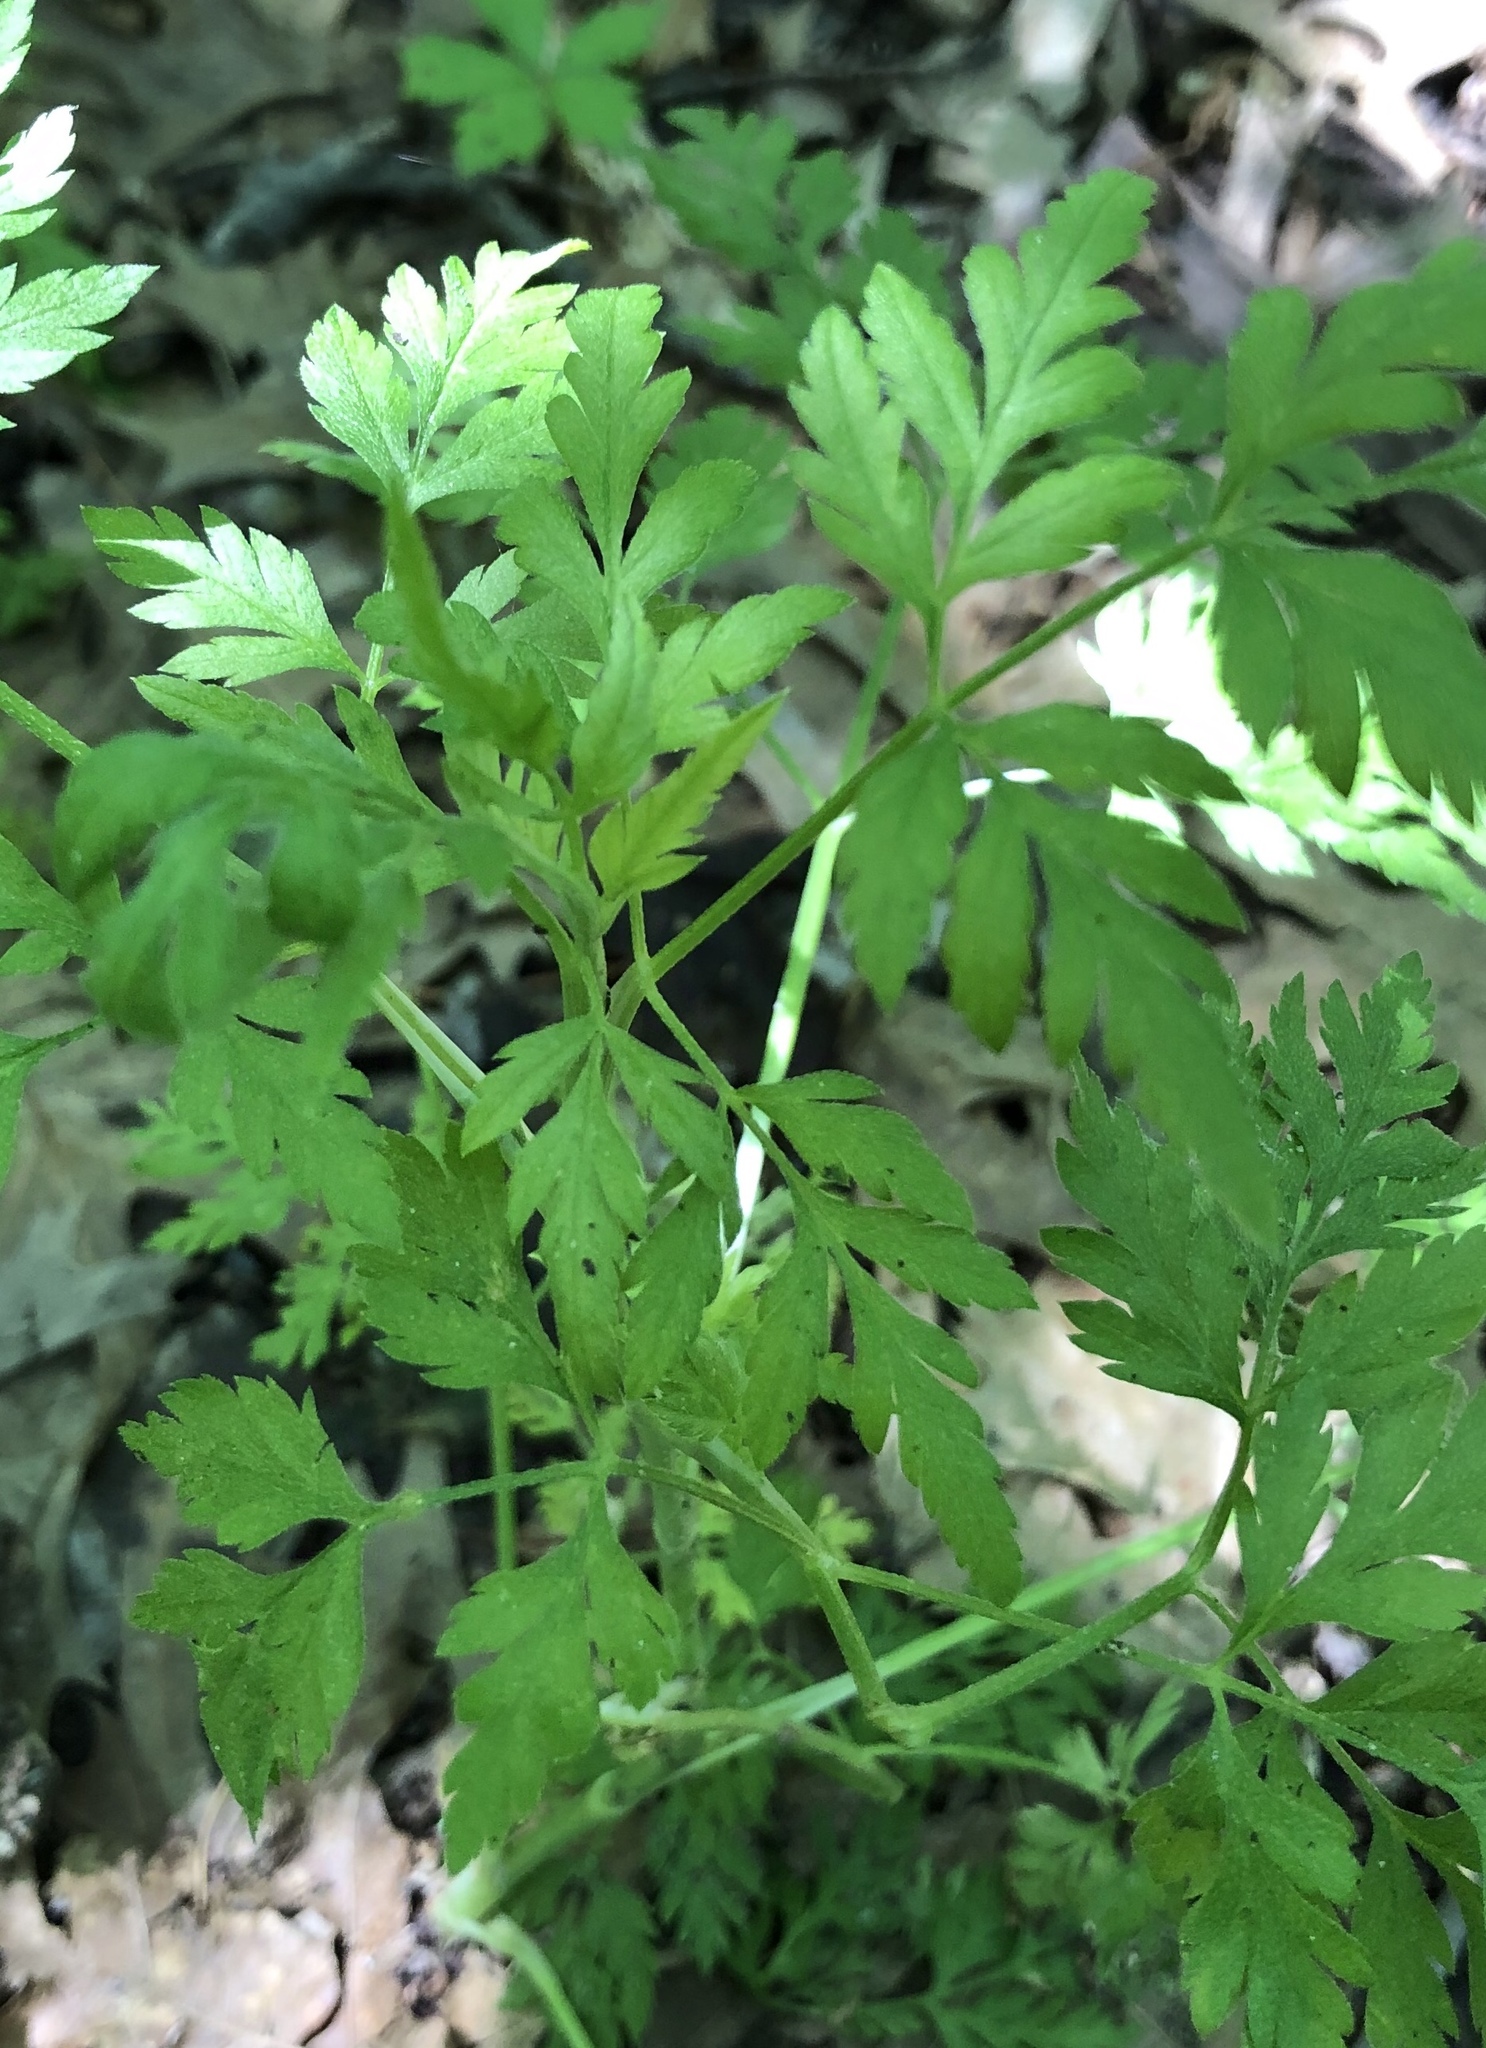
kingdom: Plantae
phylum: Tracheophyta
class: Magnoliopsida
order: Apiales
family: Apiaceae
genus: Chaerophyllum
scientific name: Chaerophyllum tainturieri
